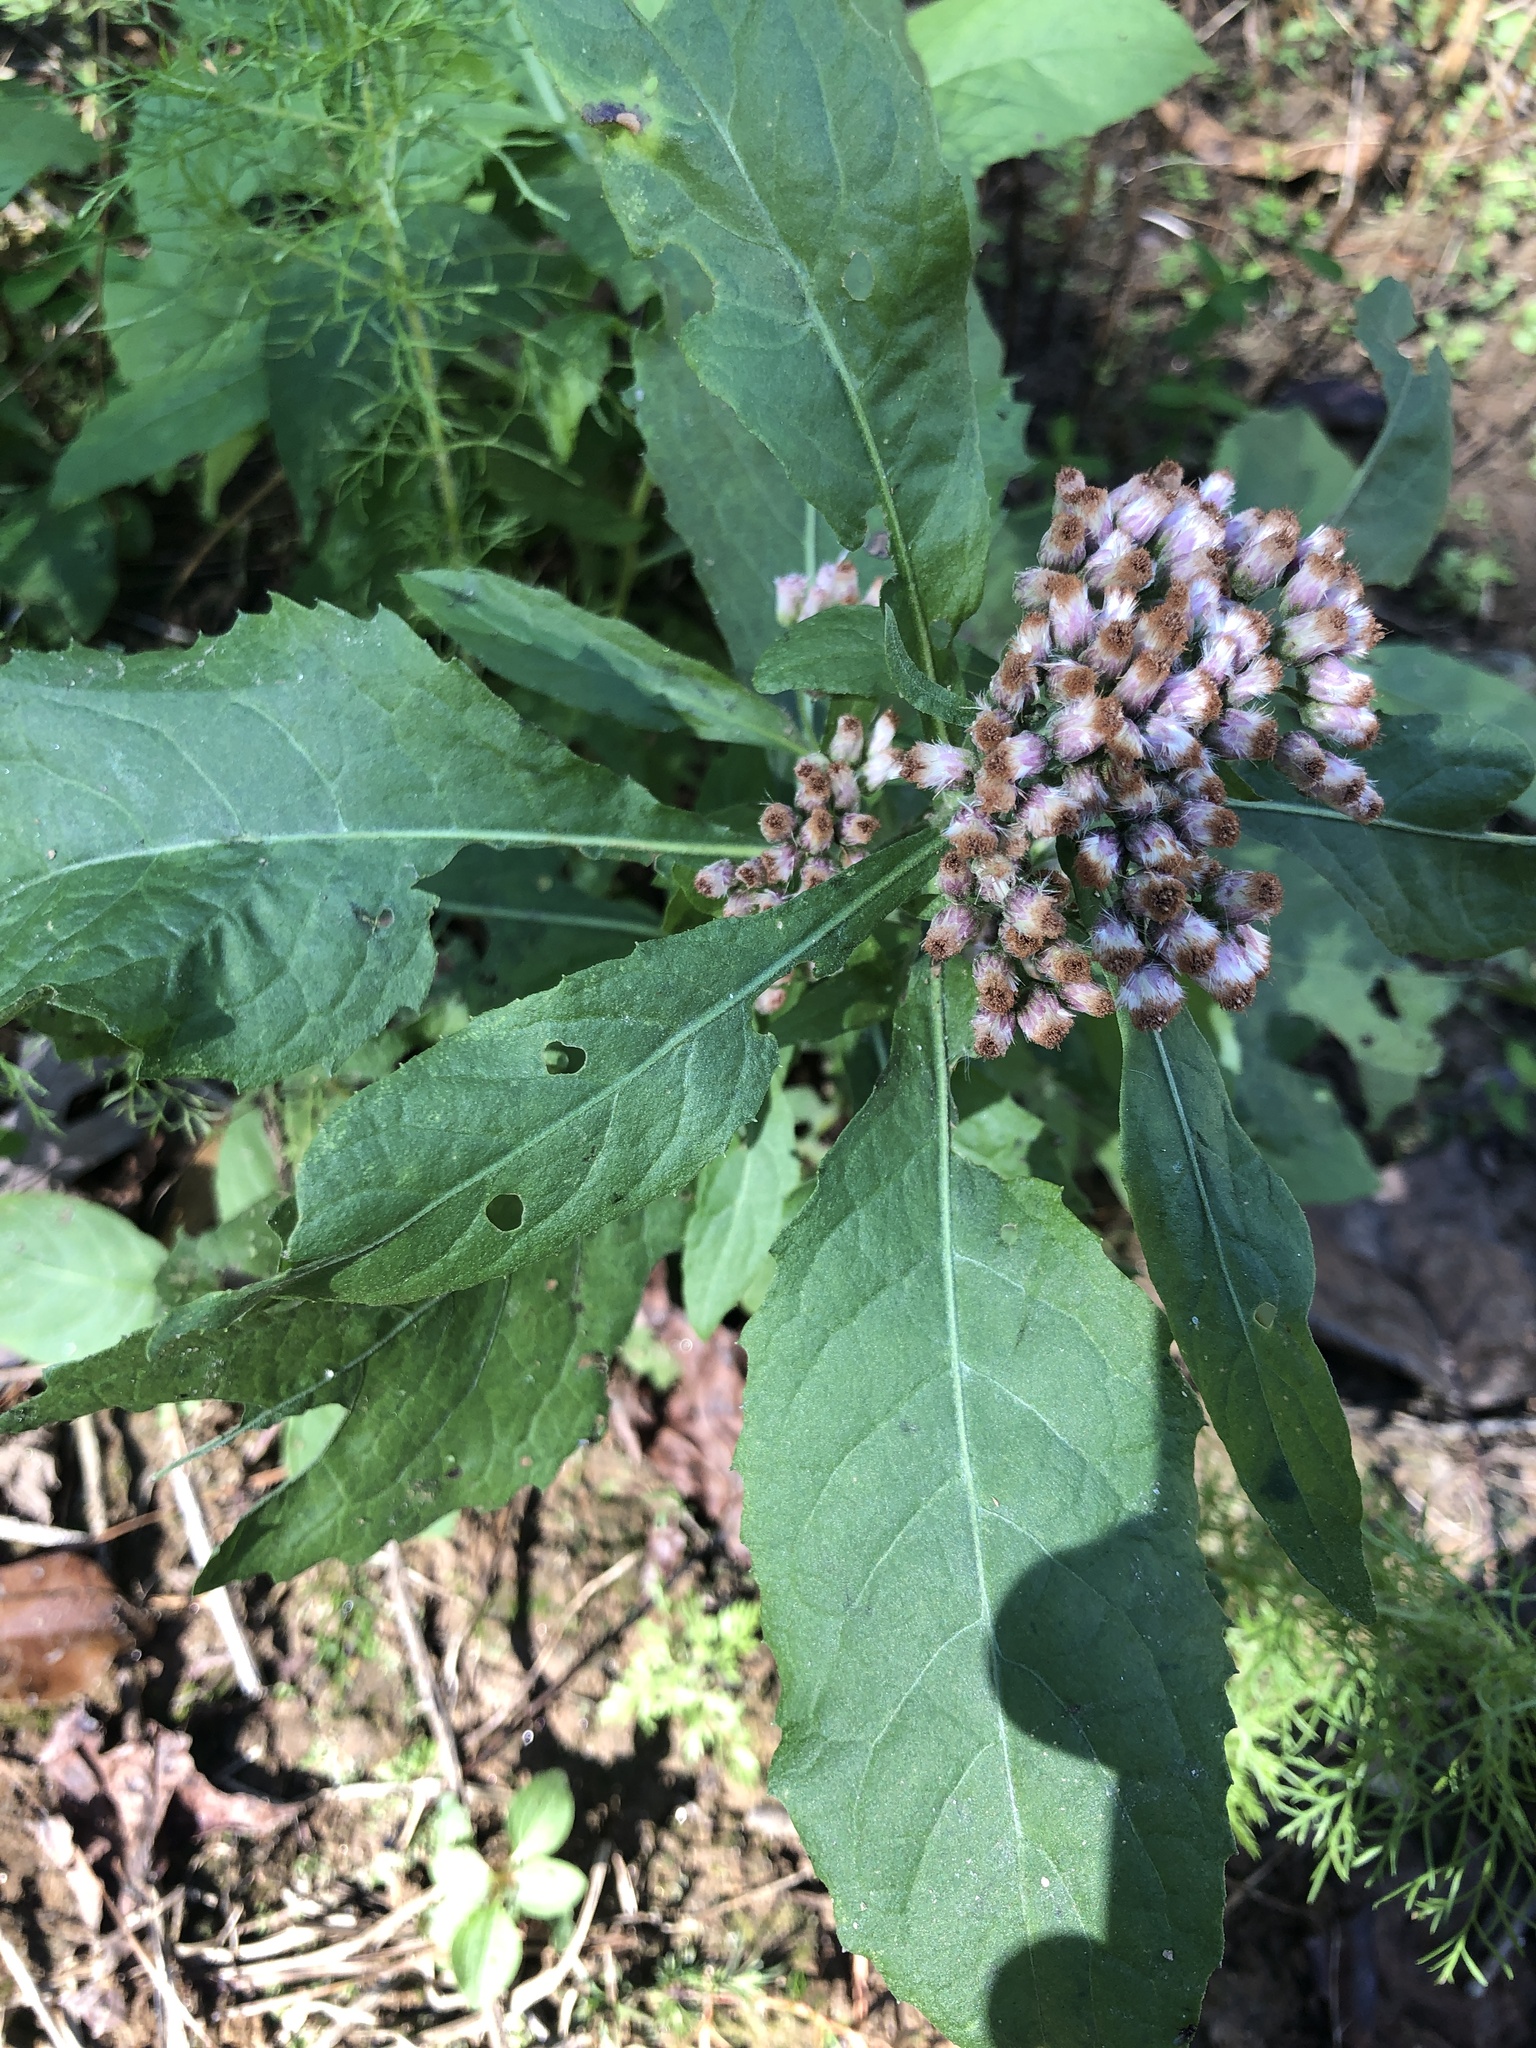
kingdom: Plantae
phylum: Tracheophyta
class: Magnoliopsida
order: Asterales
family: Asteraceae
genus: Pluchea
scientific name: Pluchea camphorata
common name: Camphor pluchea
